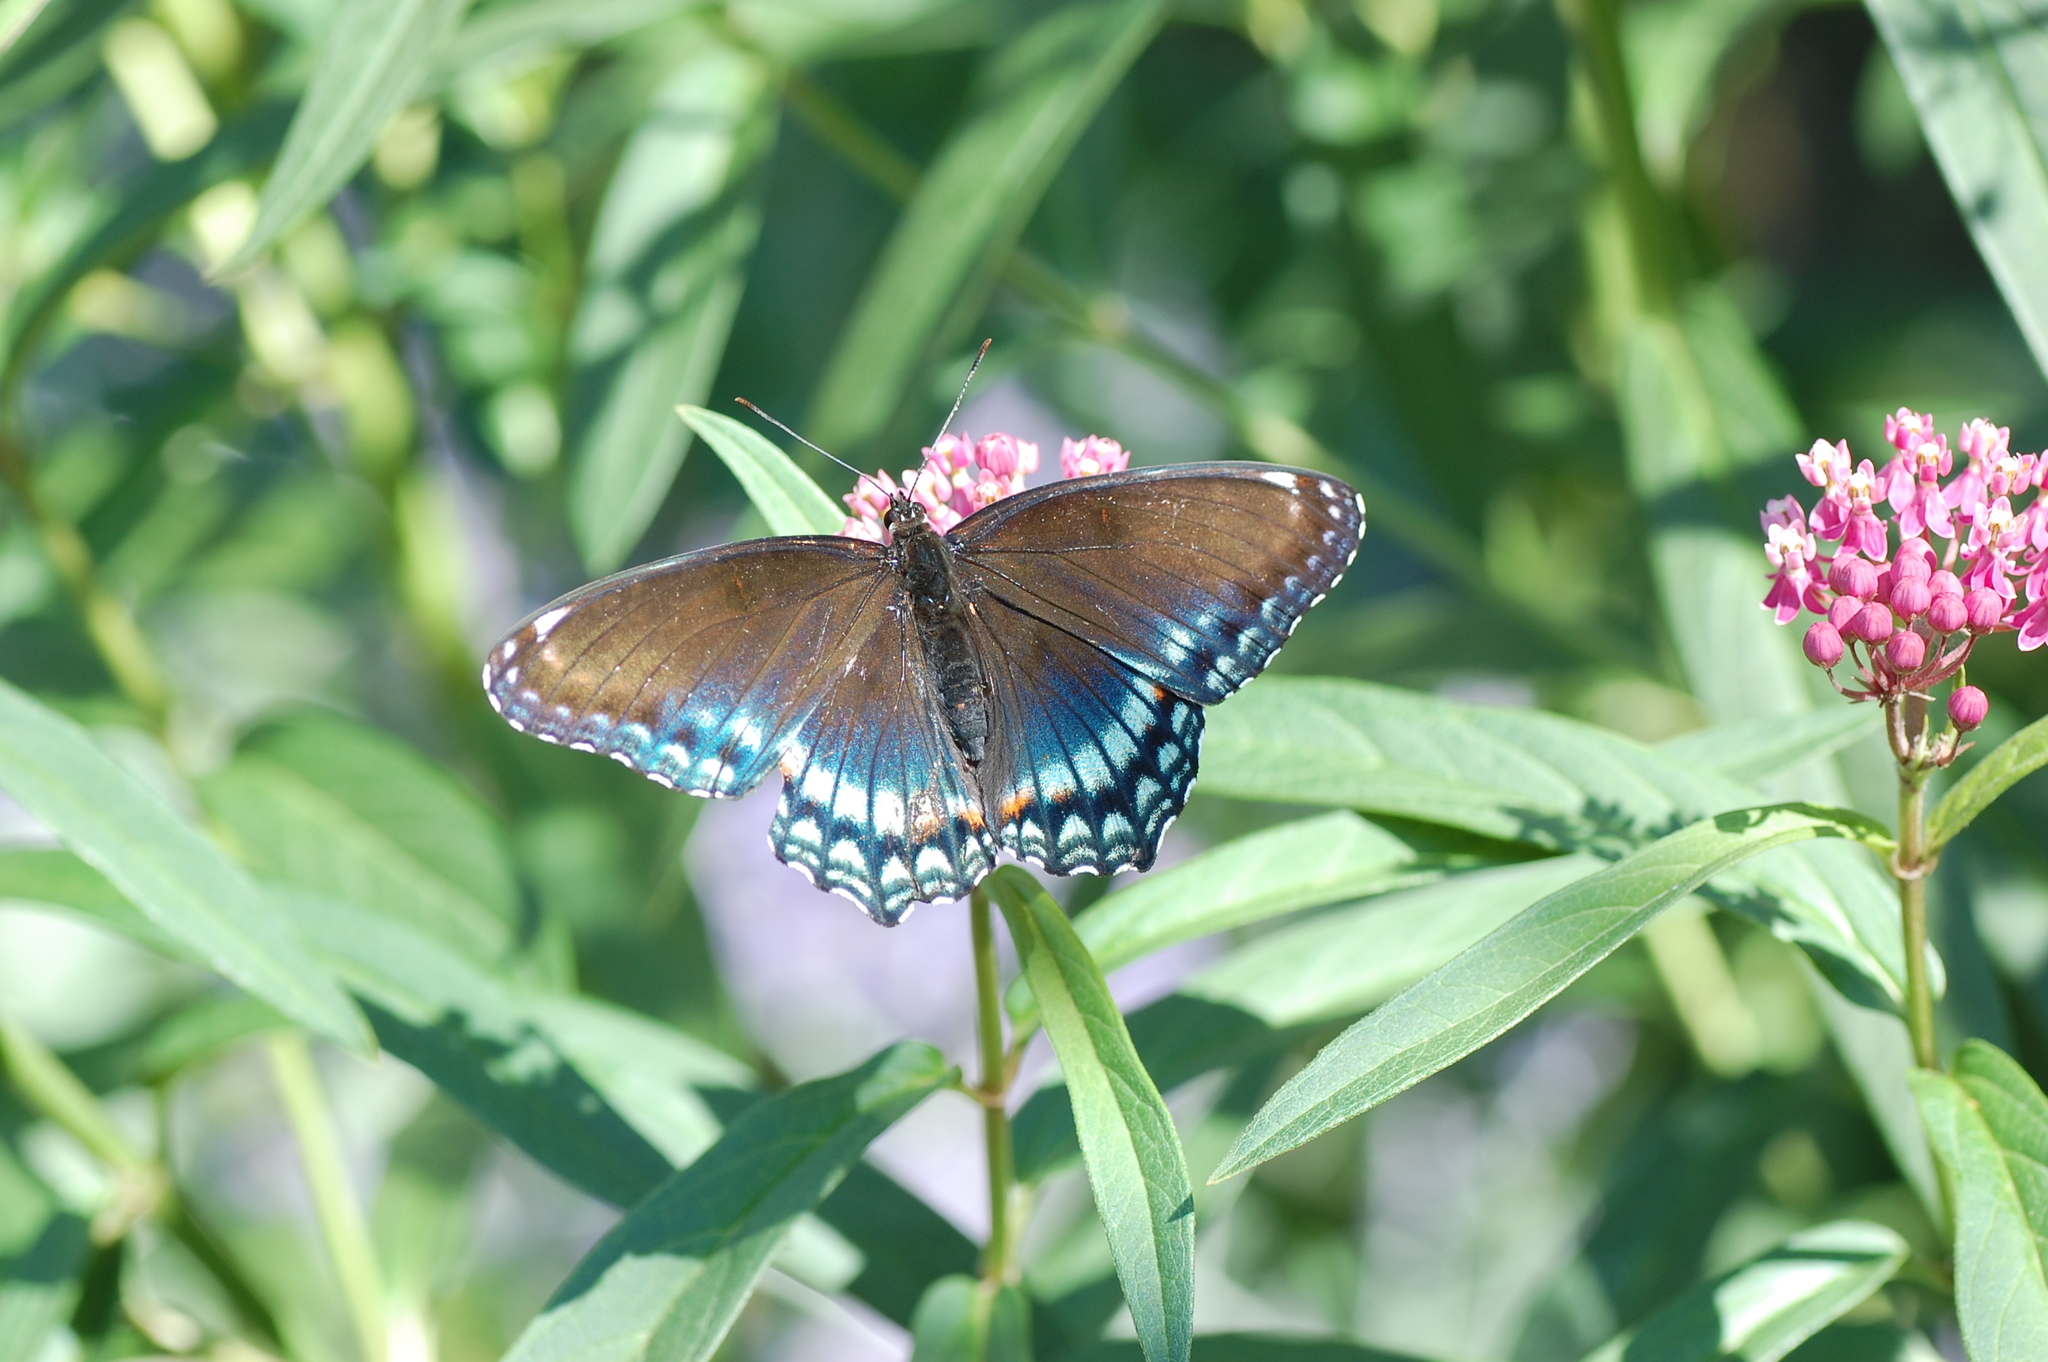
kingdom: Animalia
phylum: Arthropoda
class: Insecta
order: Lepidoptera
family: Nymphalidae
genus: Limenitis
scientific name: Limenitis astyanax
